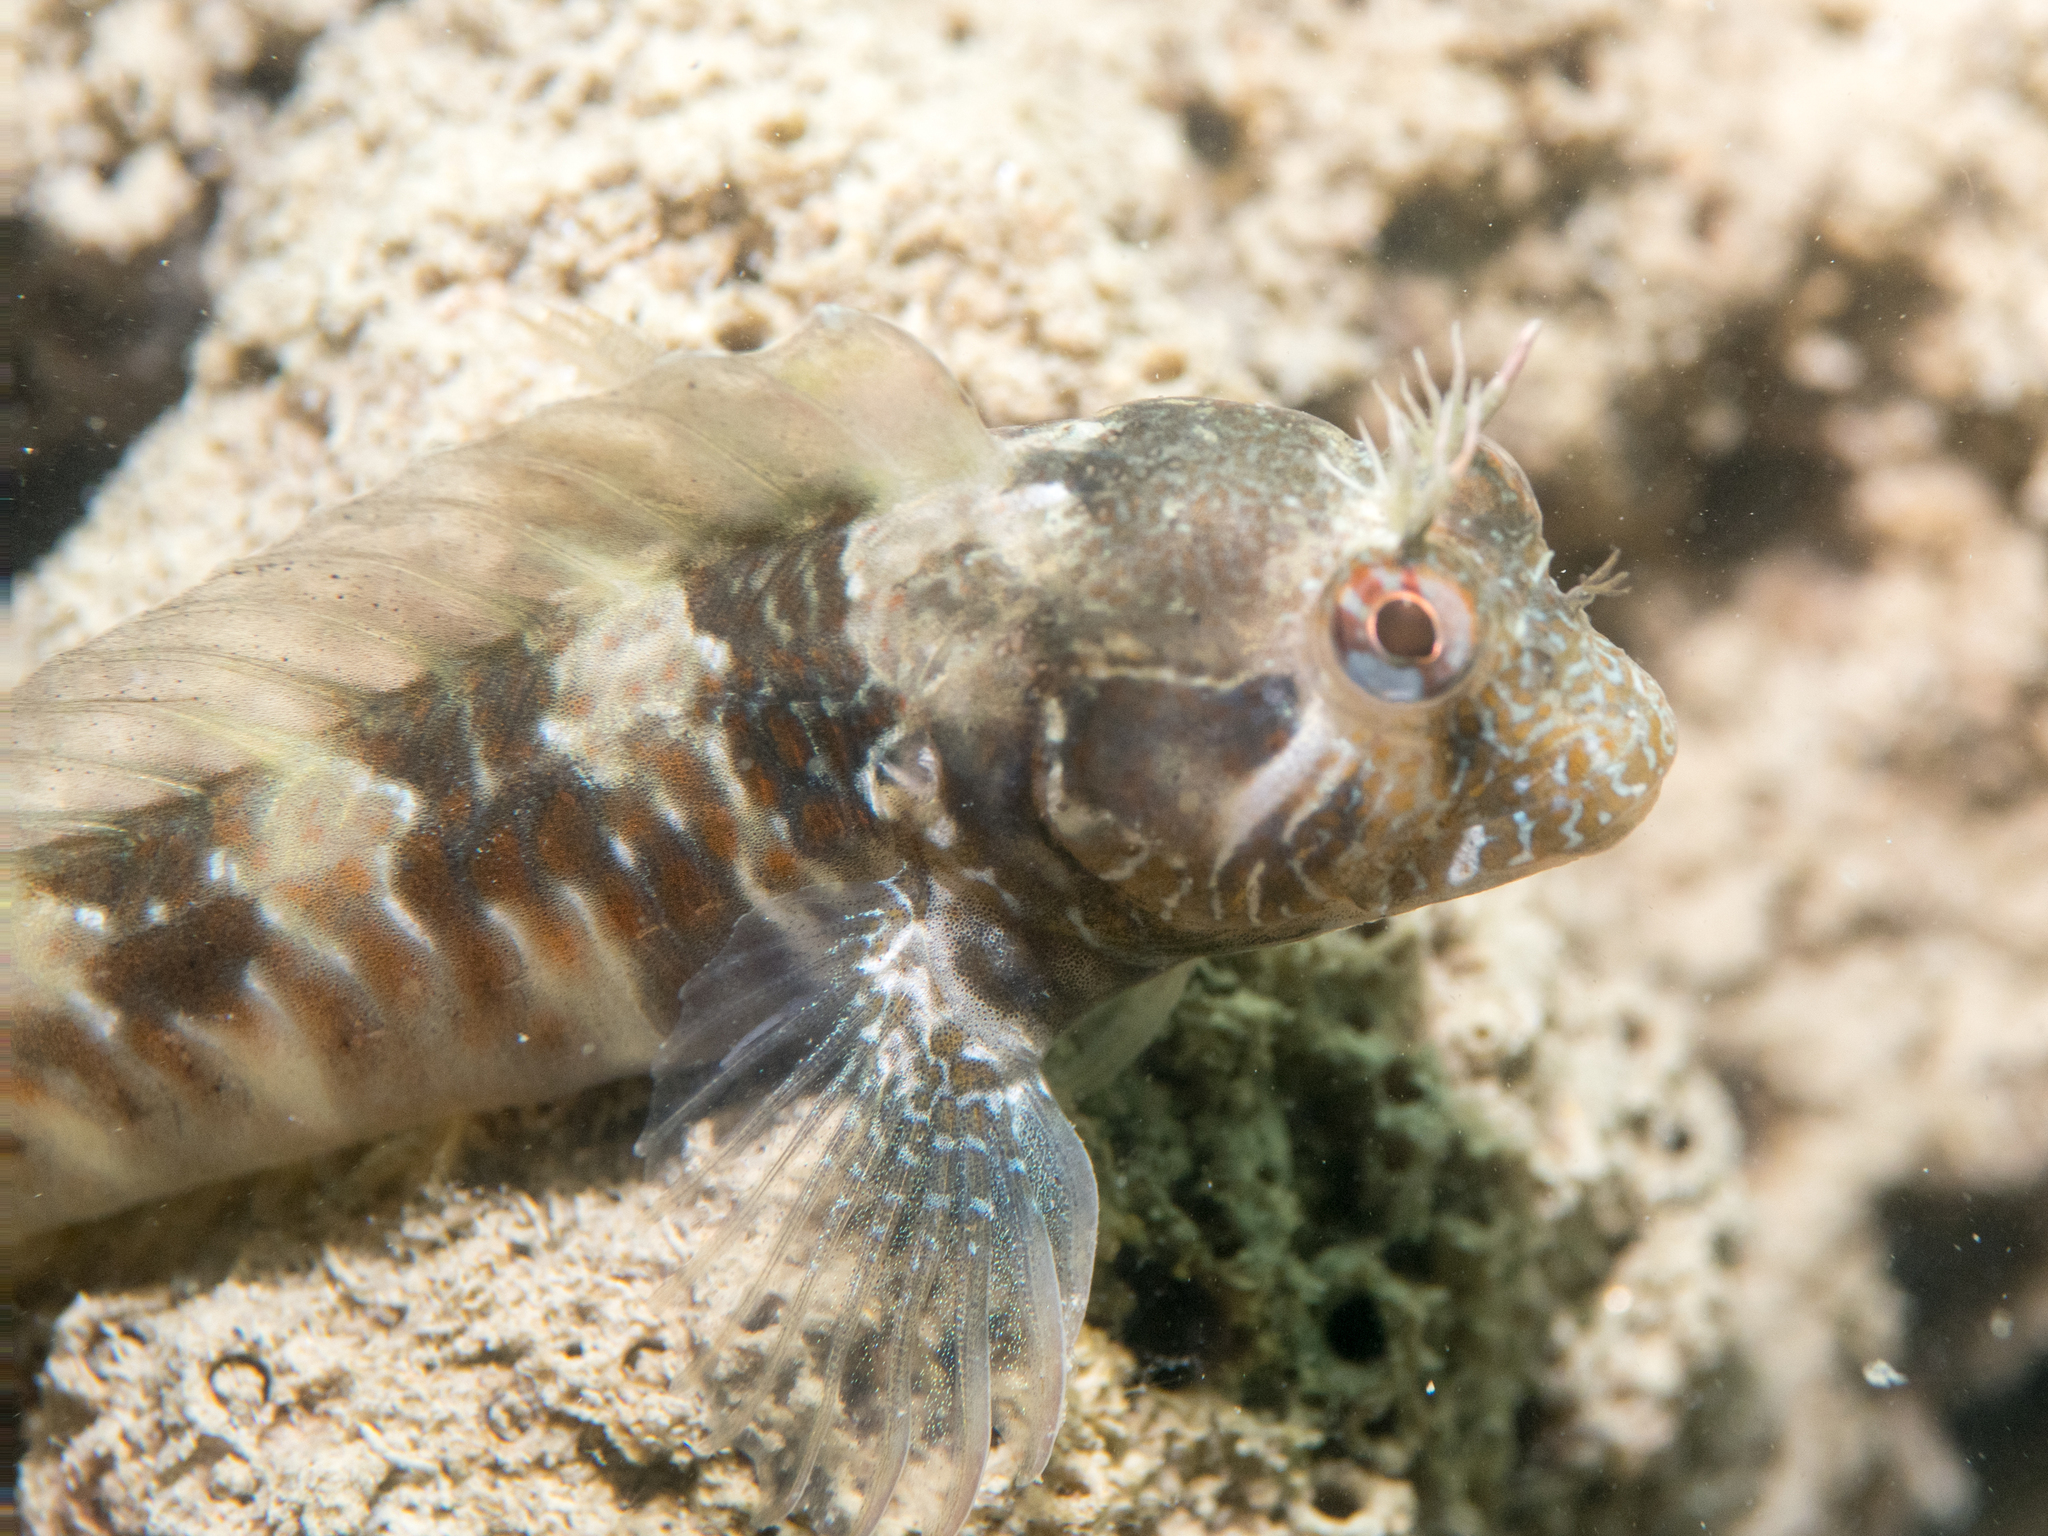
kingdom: Animalia
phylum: Chordata
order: Perciformes
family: Blenniidae
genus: Parablennius
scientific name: Parablennius incognitus
